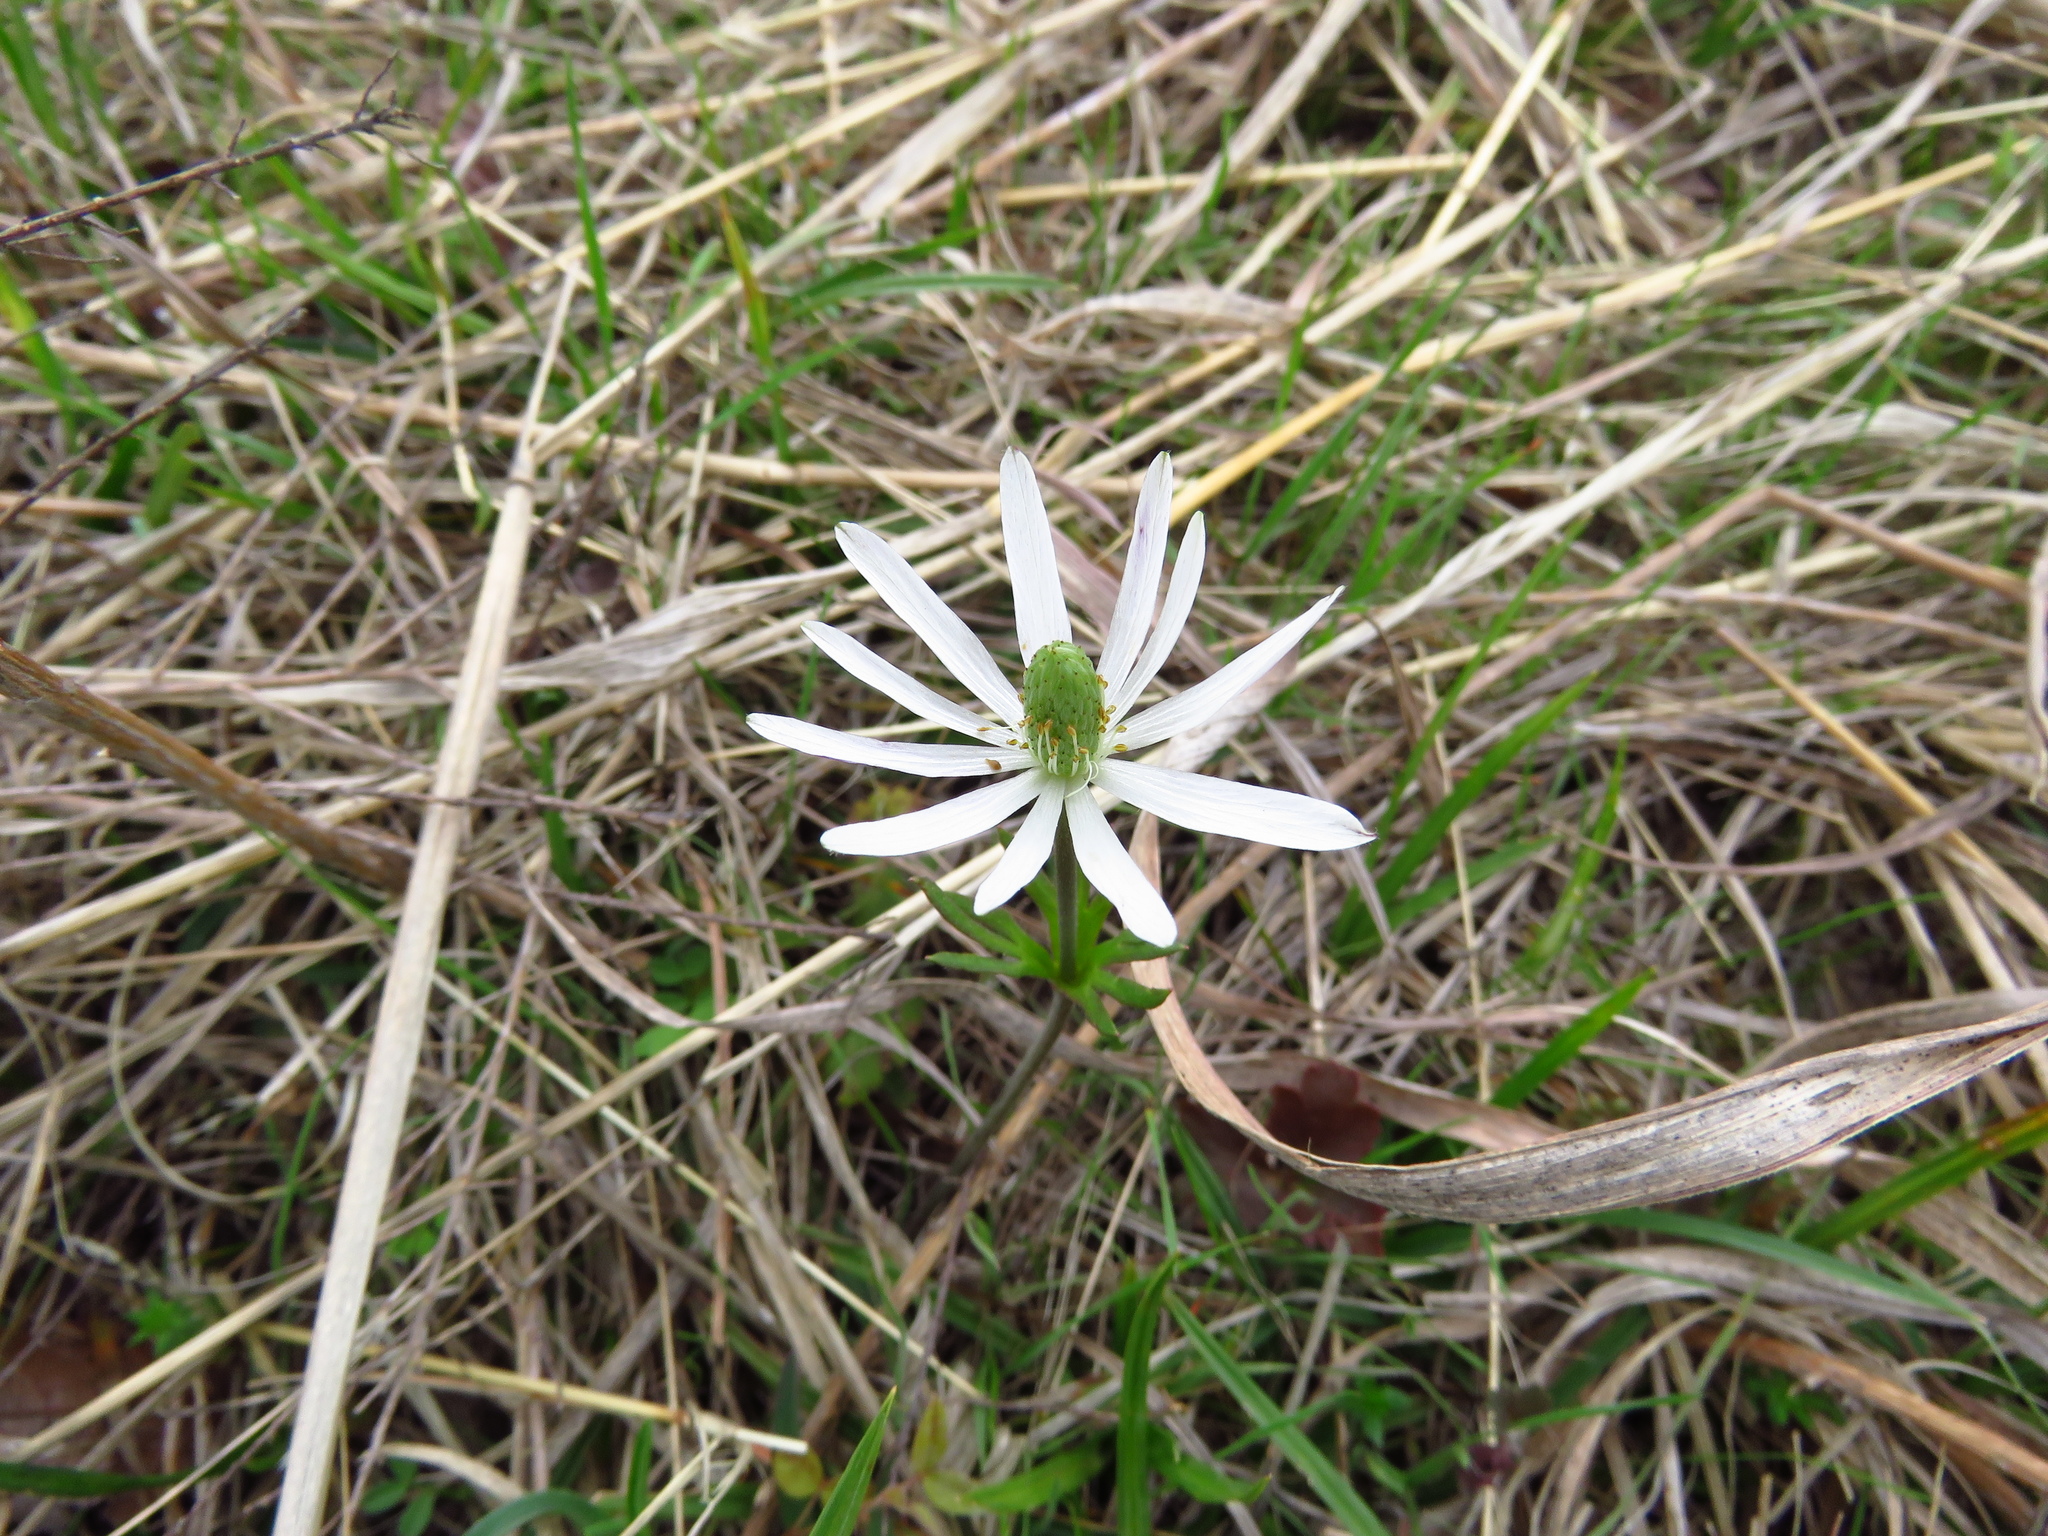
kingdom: Plantae
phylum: Tracheophyta
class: Magnoliopsida
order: Ranunculales
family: Ranunculaceae
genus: Anemone
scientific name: Anemone berlandieri
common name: Ten-petal anemone
